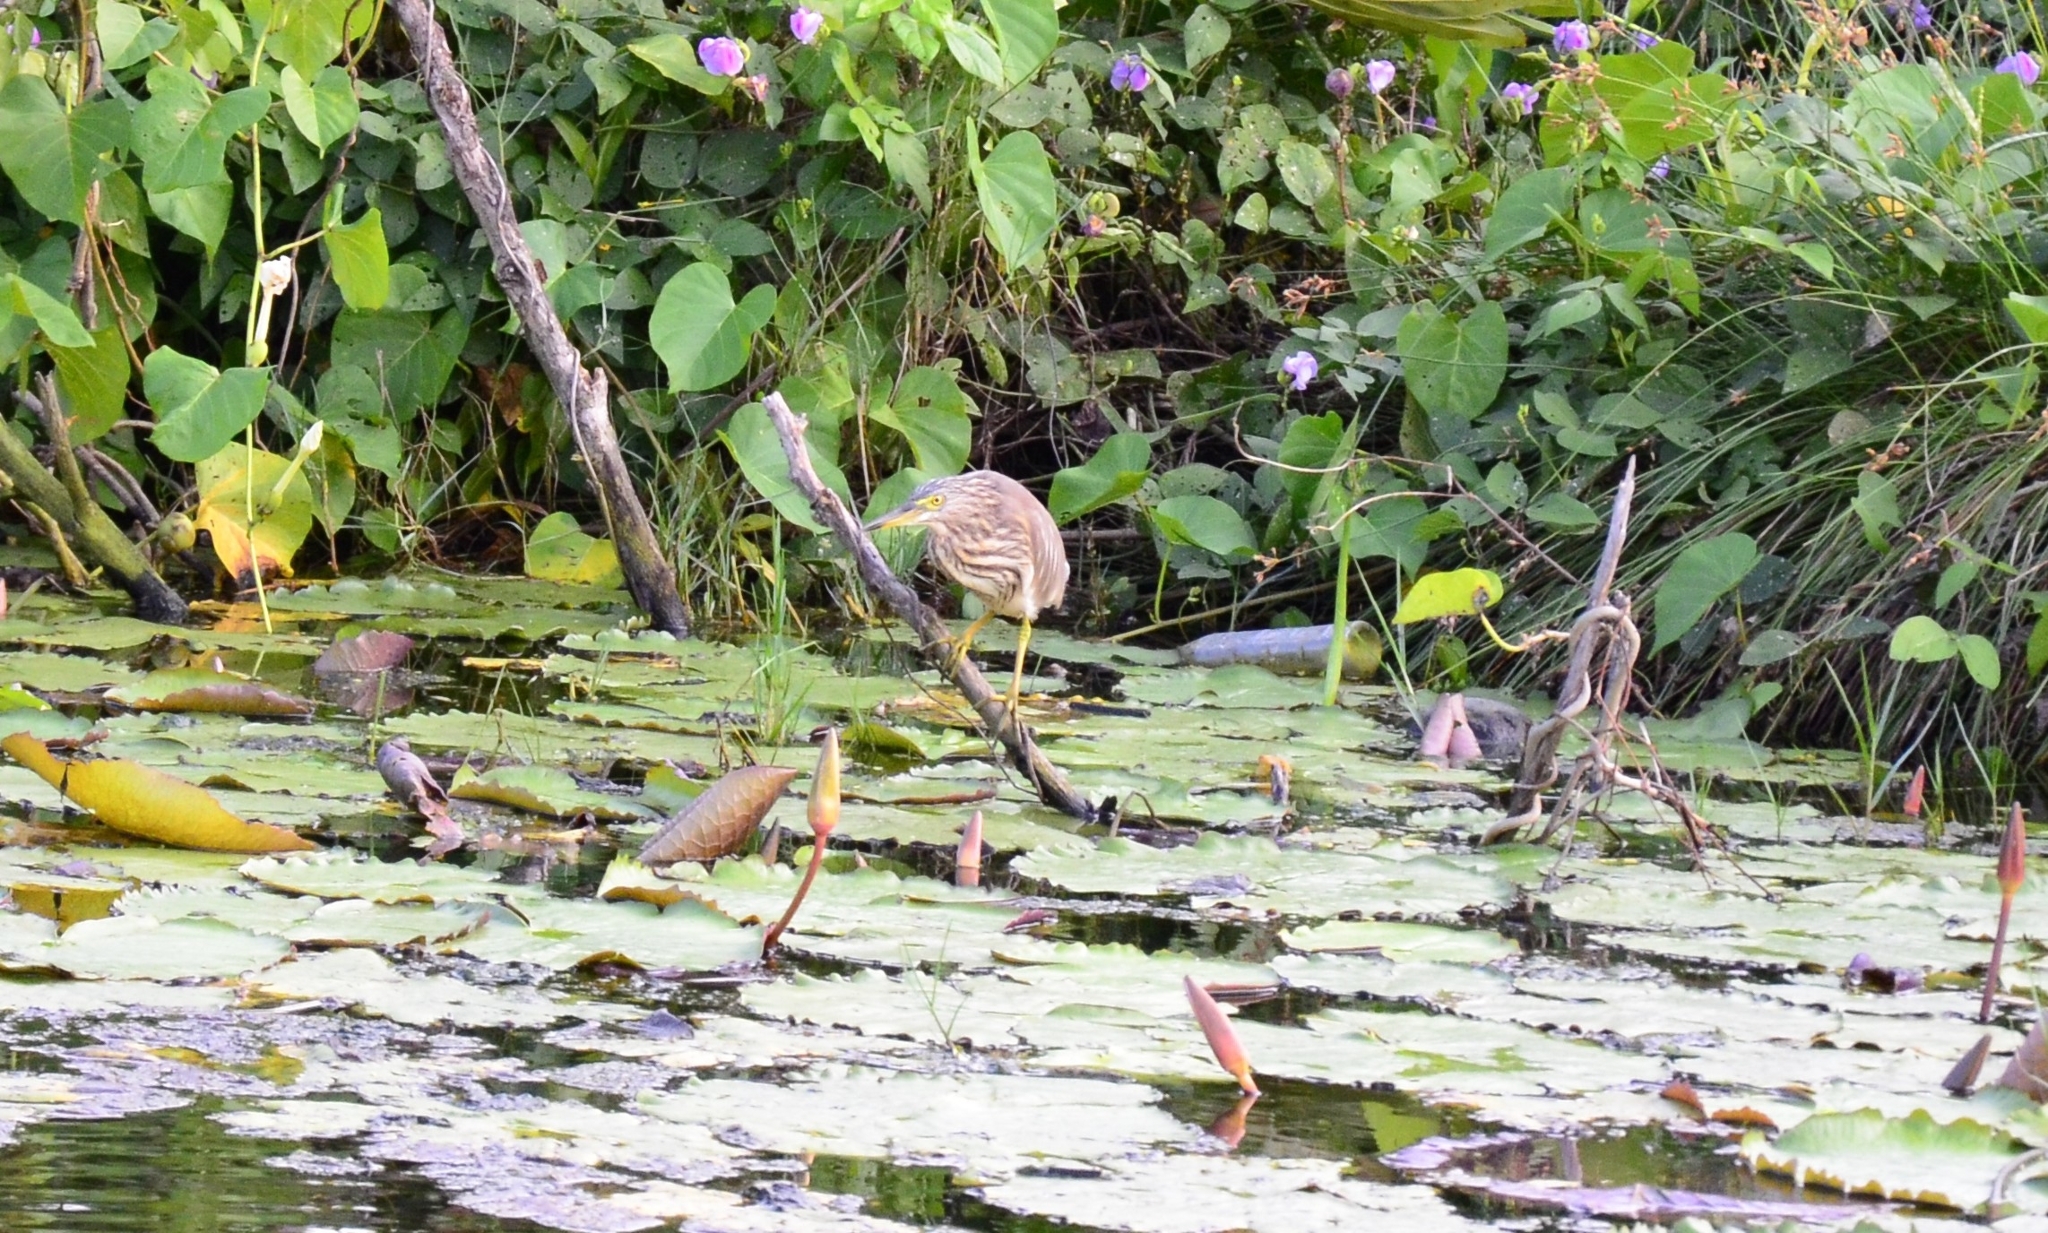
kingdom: Animalia
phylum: Chordata
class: Aves
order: Pelecaniformes
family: Ardeidae
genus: Ardeola
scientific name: Ardeola grayii
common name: Indian pond heron
